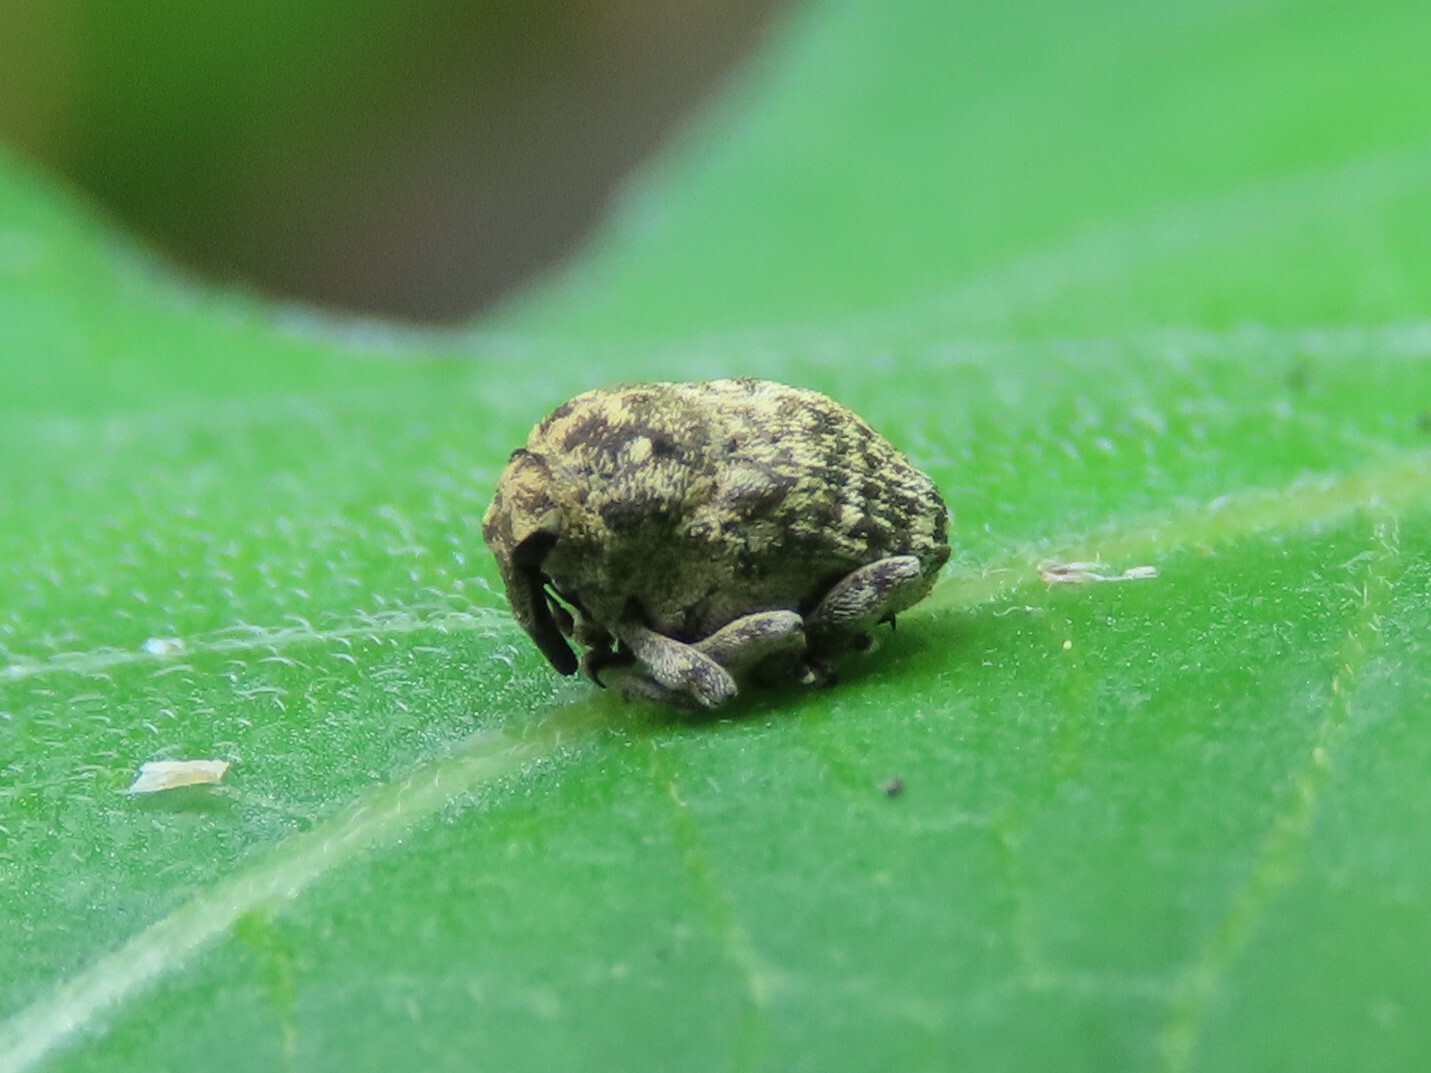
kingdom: Animalia
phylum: Arthropoda
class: Insecta
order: Coleoptera
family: Curculionidae
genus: Acanthoscelidius
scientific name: Acanthoscelidius acephalus
